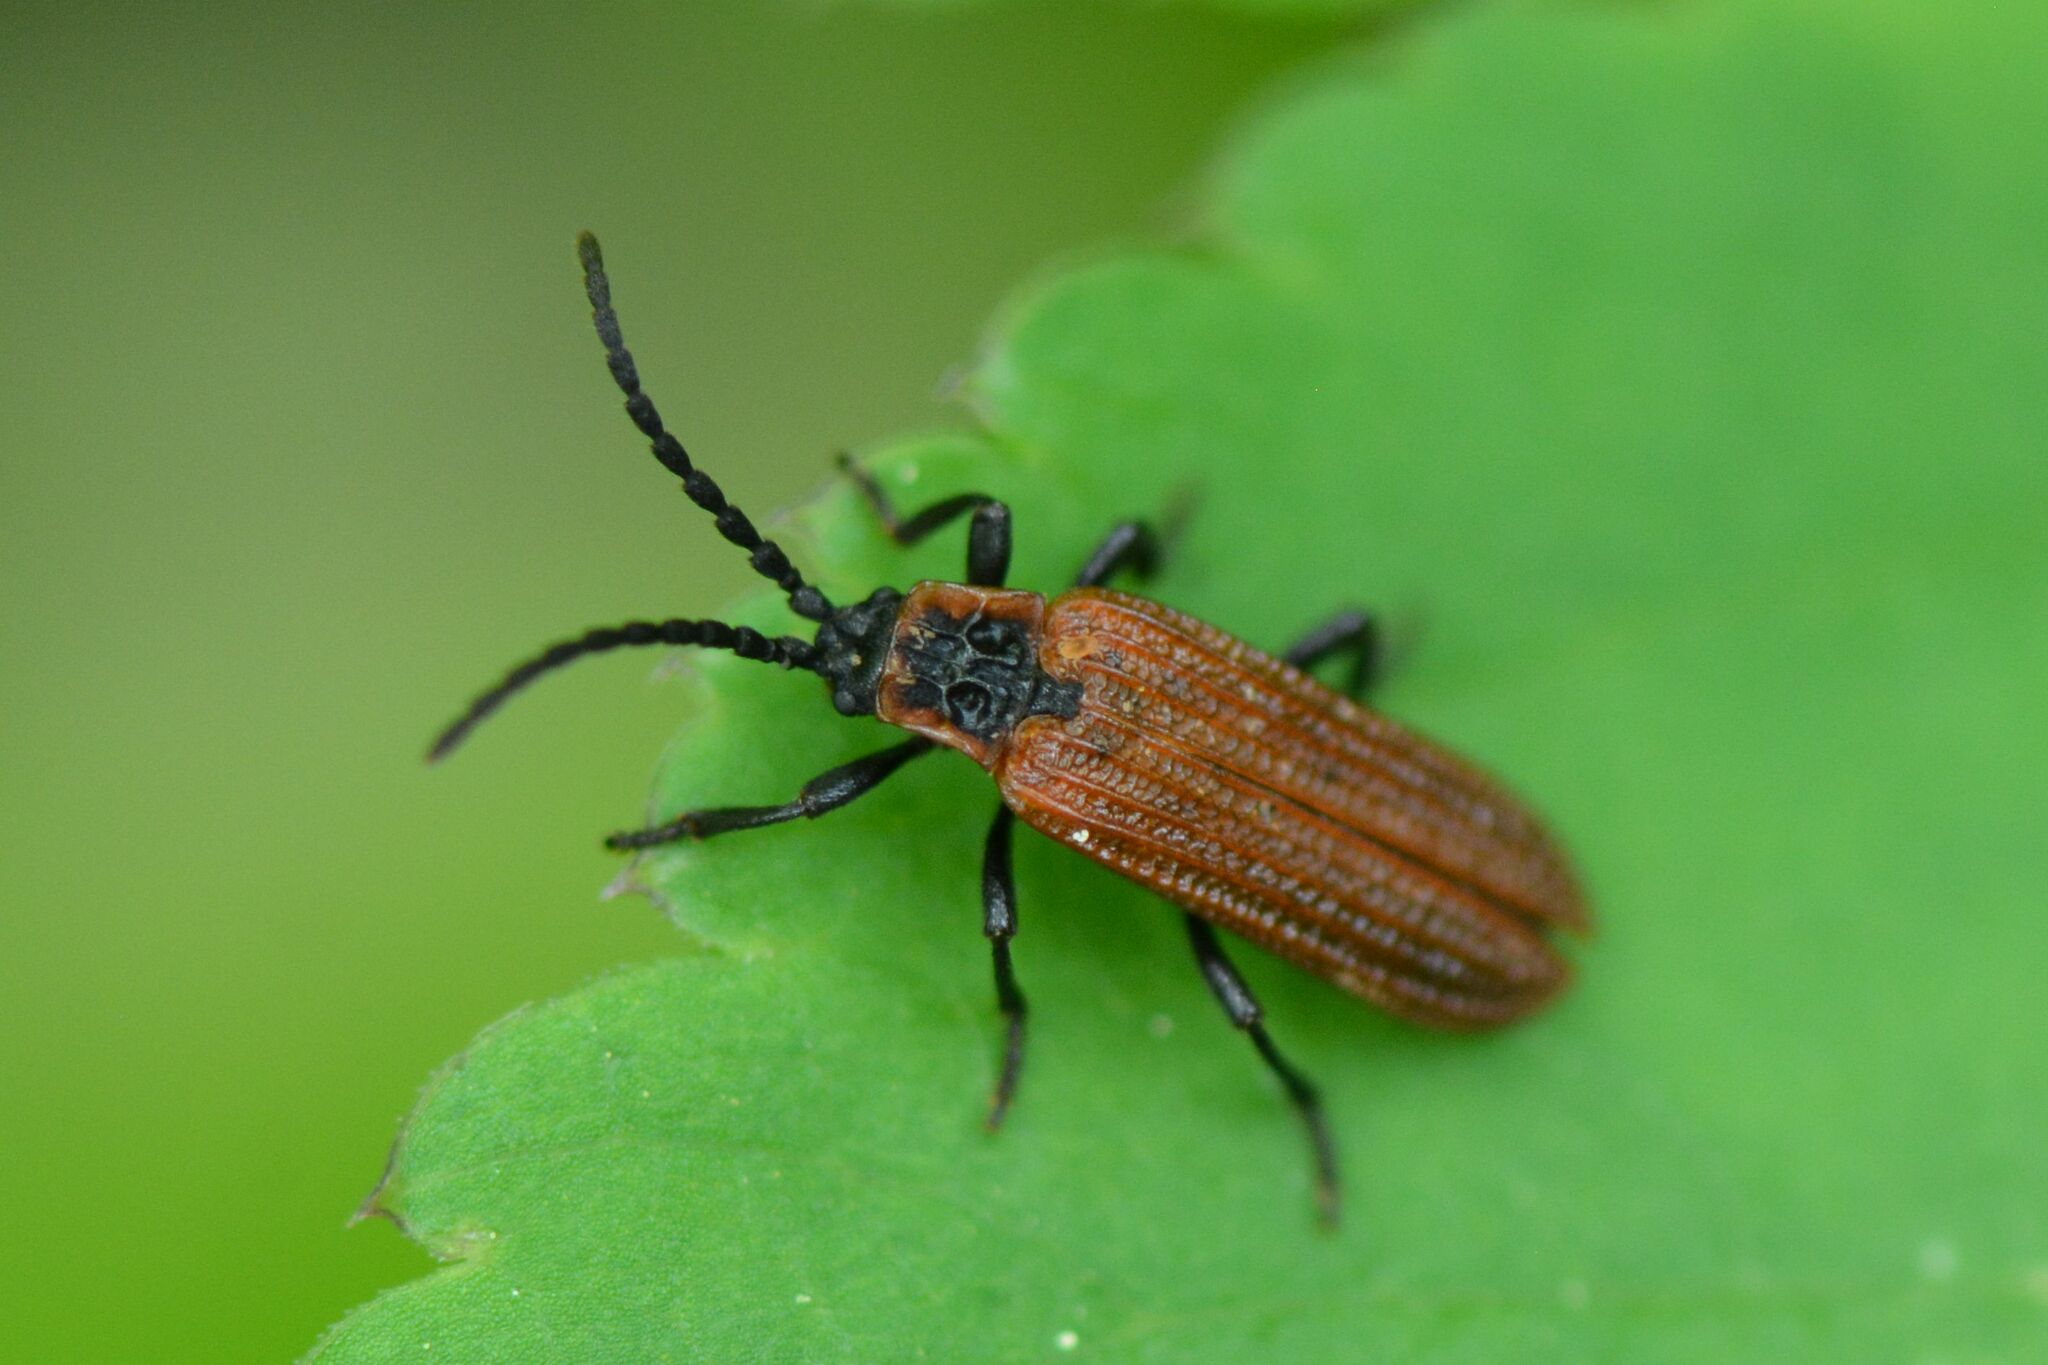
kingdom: Animalia
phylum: Arthropoda
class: Insecta
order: Coleoptera
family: Lycidae
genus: Erotides
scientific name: Erotides cosnardi
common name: Cosnard's net-winged beetle
